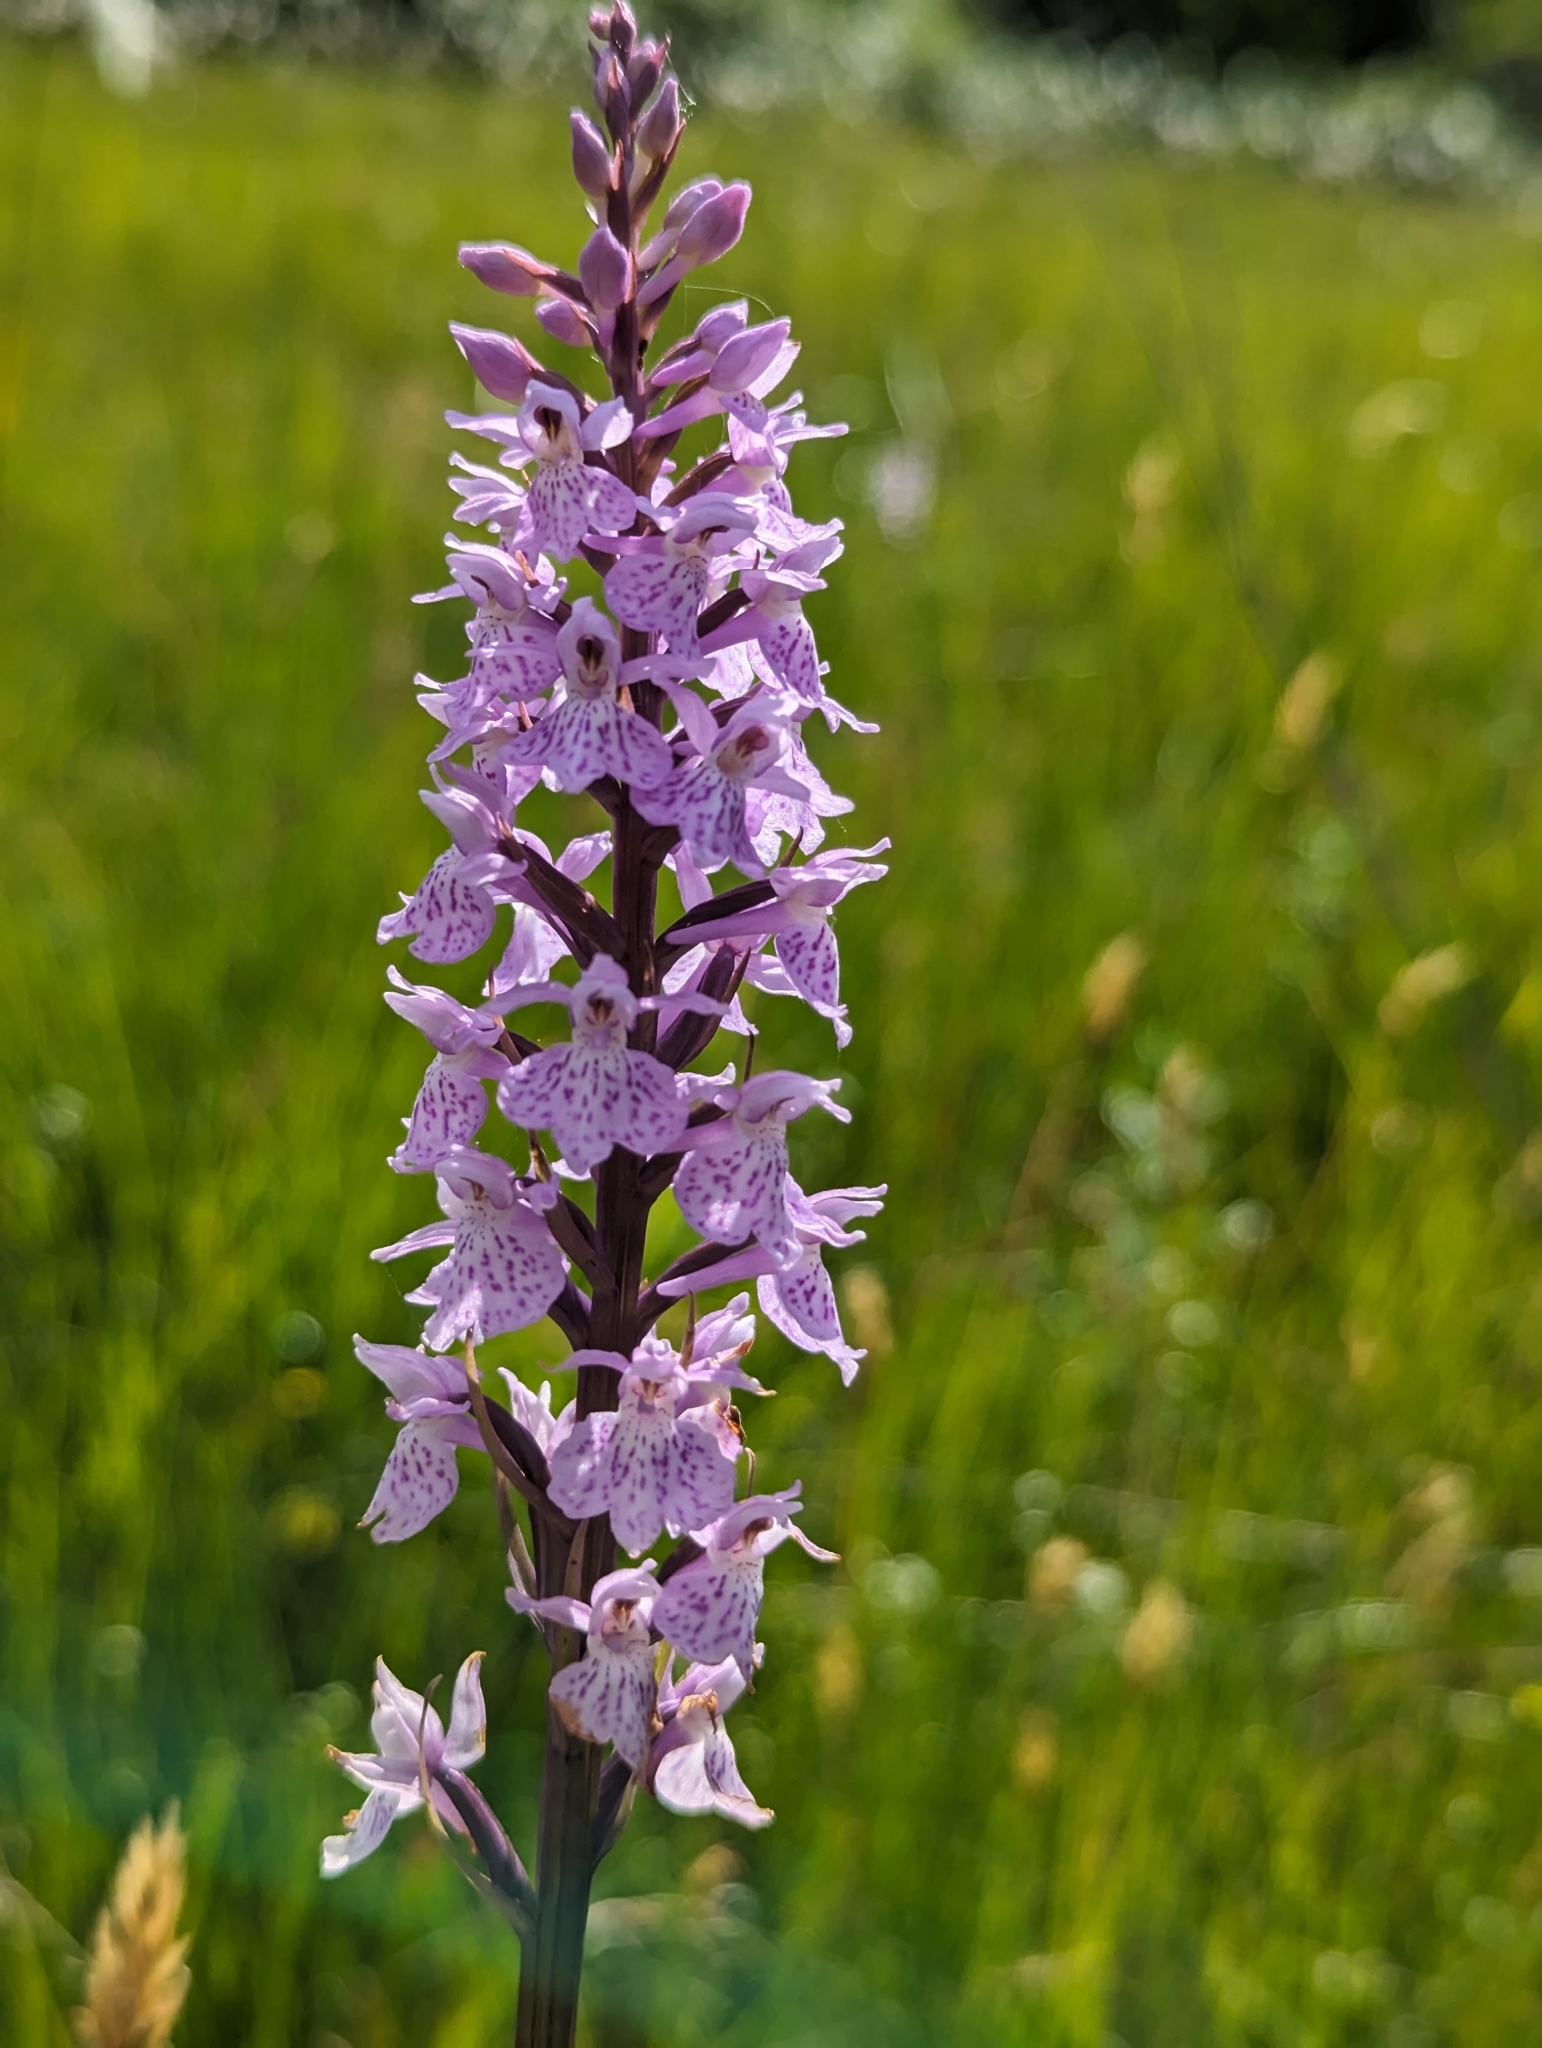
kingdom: Plantae
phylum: Tracheophyta
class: Liliopsida
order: Asparagales
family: Orchidaceae
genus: Dactylorhiza
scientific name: Dactylorhiza maculata
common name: Heath spotted-orchid
